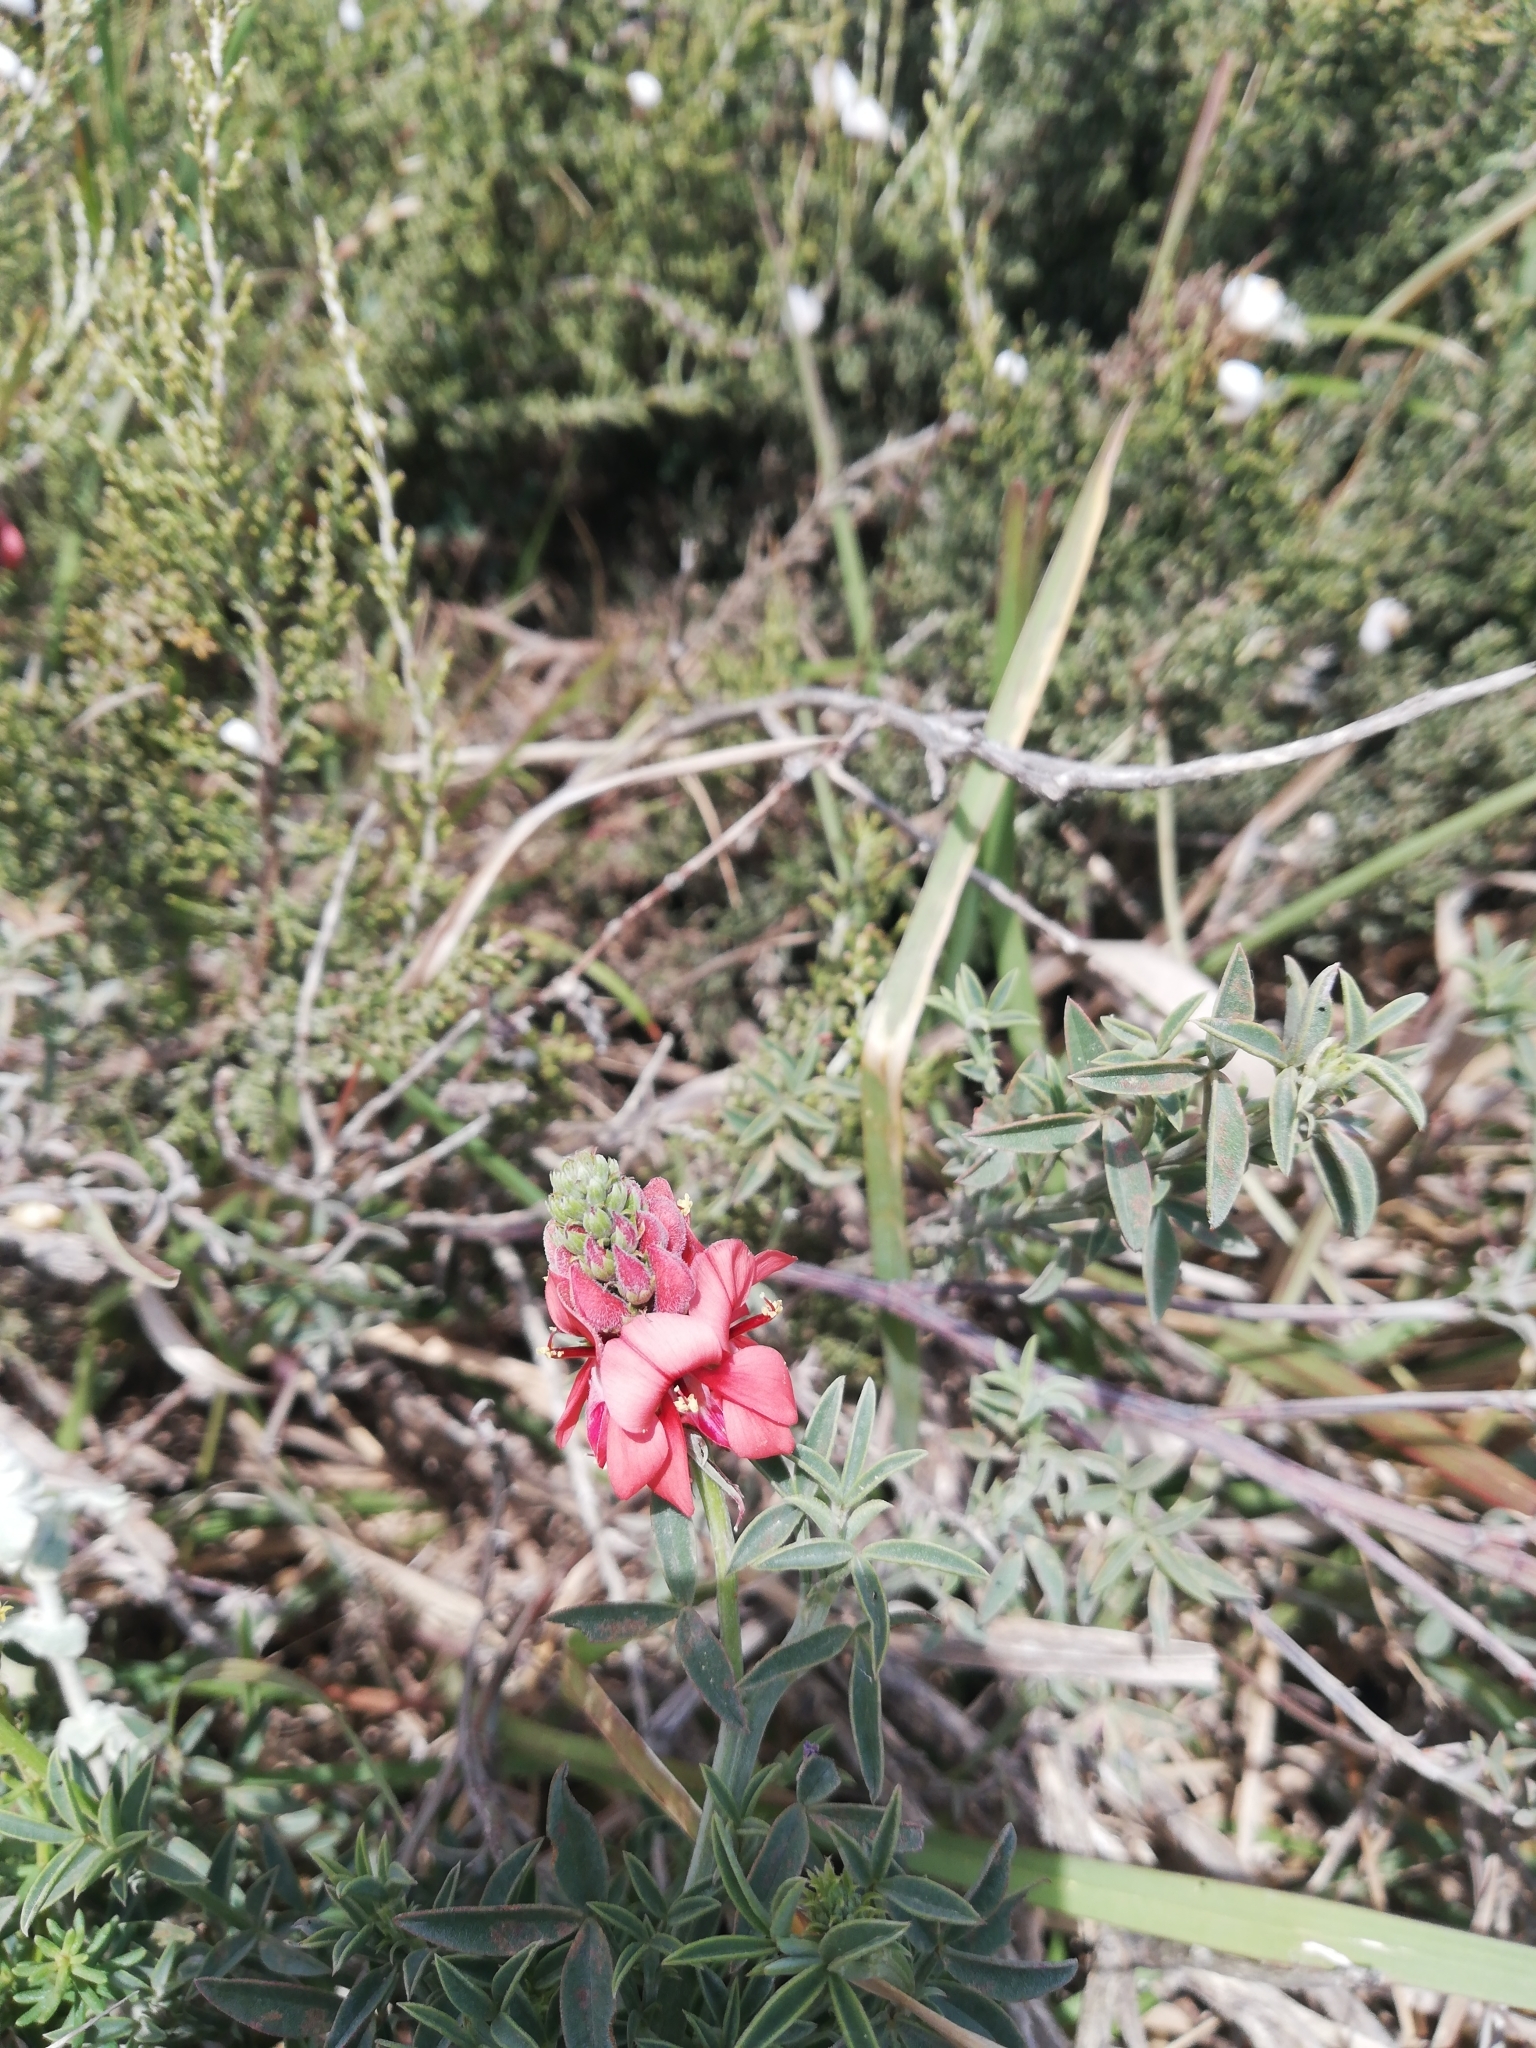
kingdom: Plantae
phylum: Tracheophyta
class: Magnoliopsida
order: Fabales
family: Fabaceae
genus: Indigofera
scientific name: Indigofera complanata
